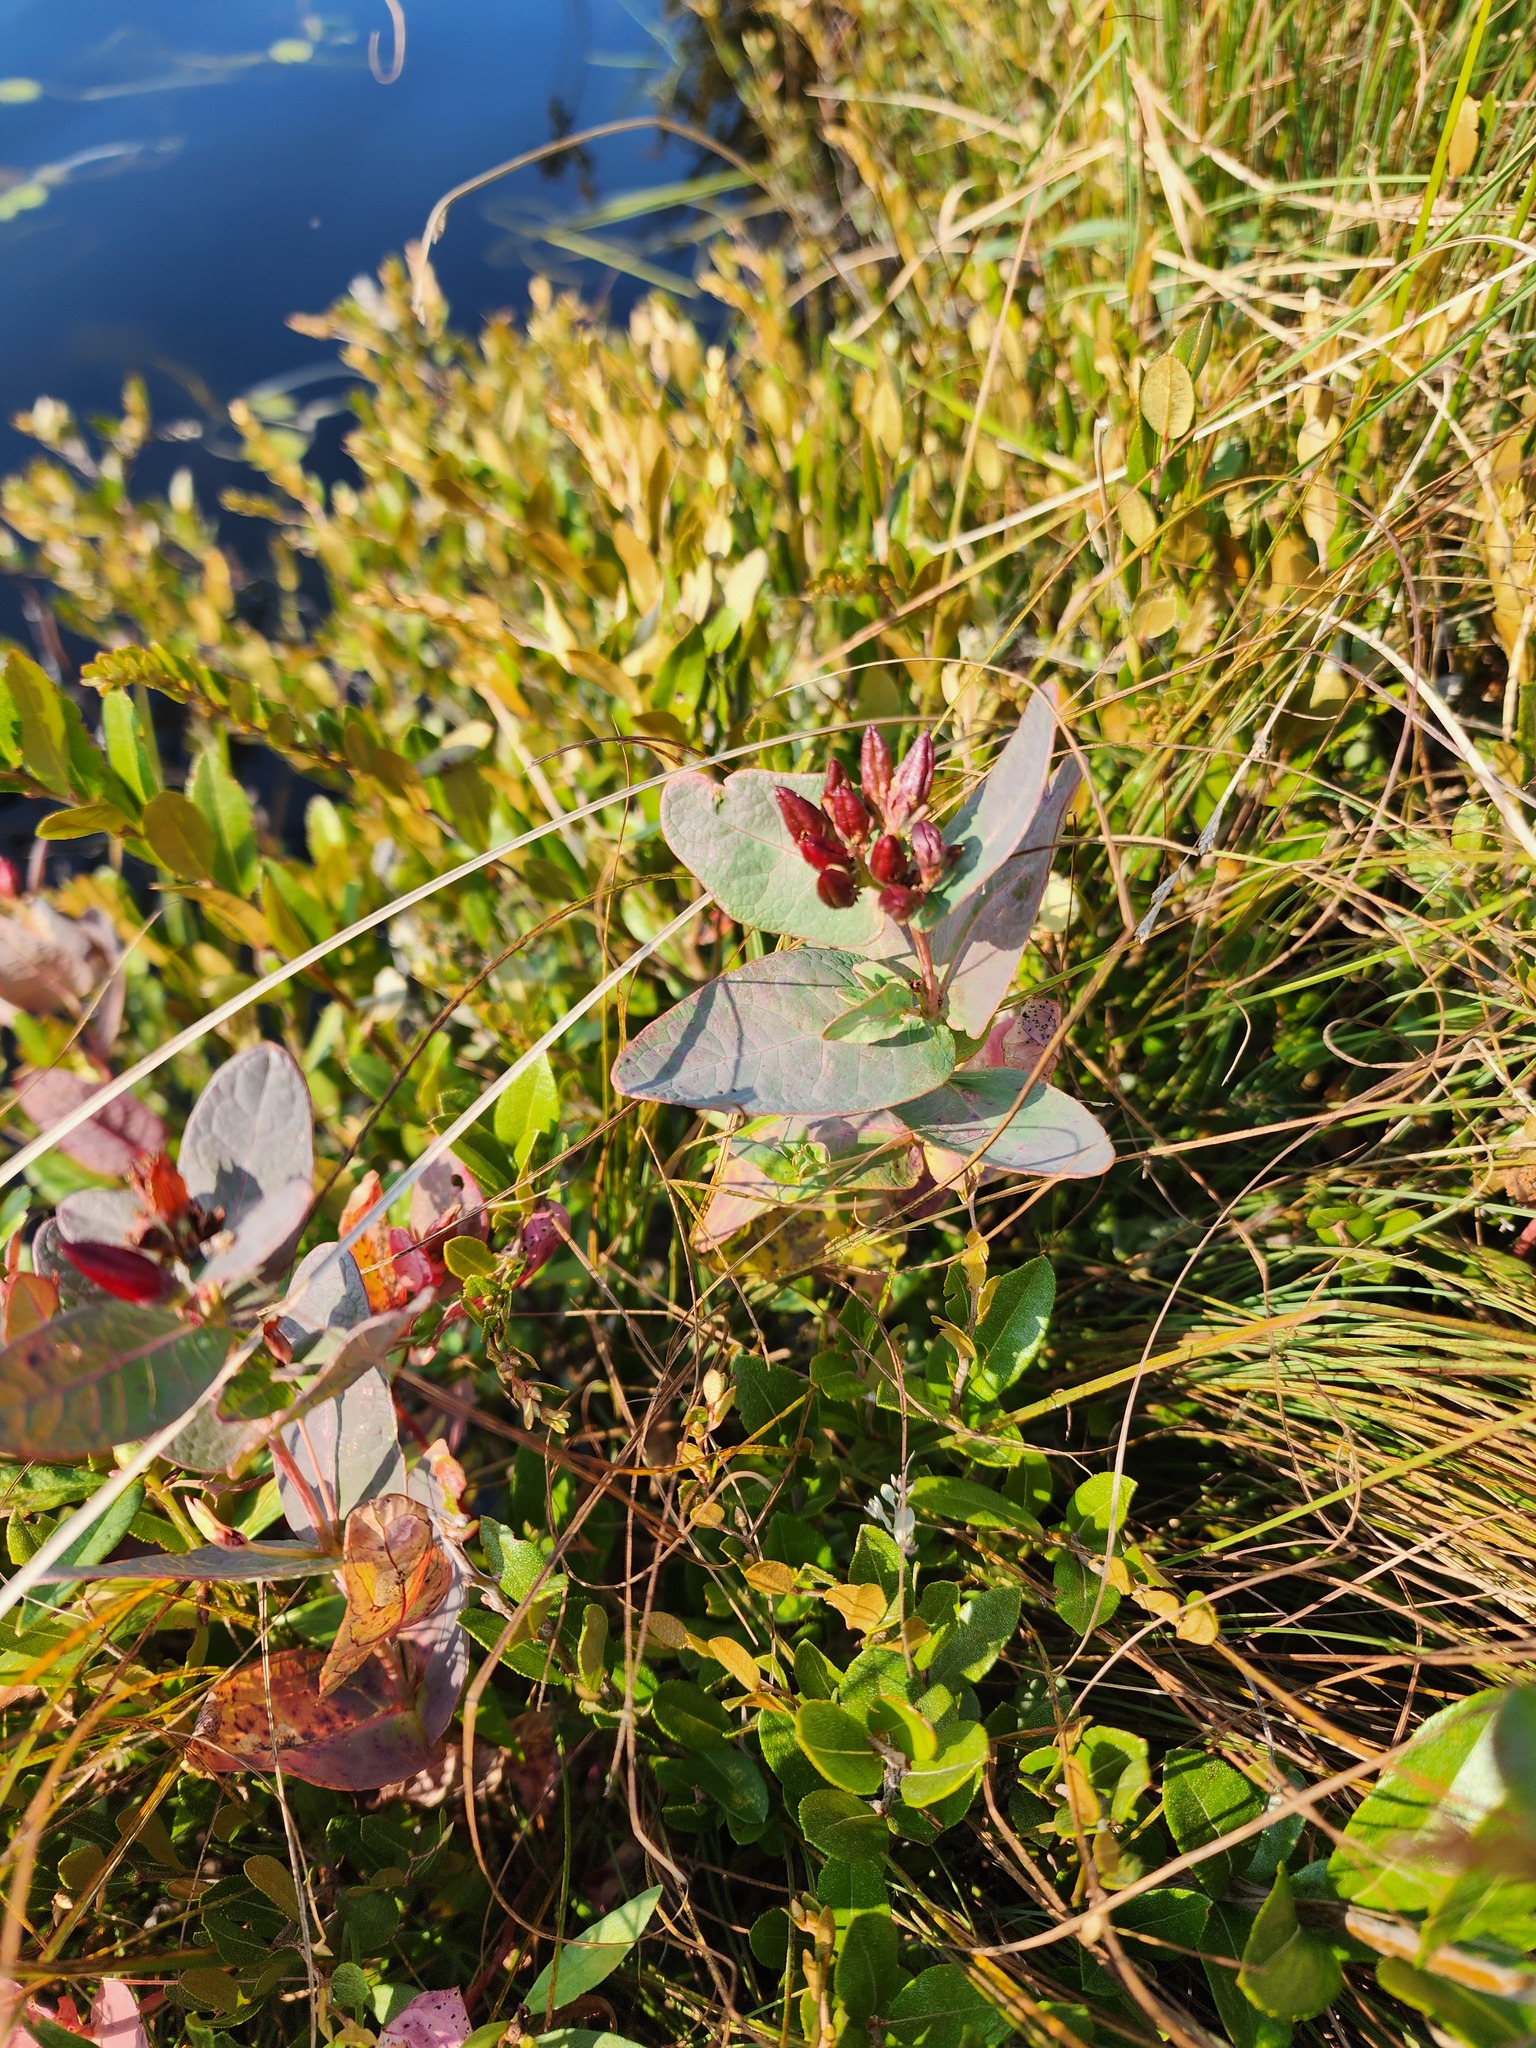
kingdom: Plantae
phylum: Tracheophyta
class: Magnoliopsida
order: Malpighiales
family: Hypericaceae
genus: Triadenum
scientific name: Triadenum fraseri
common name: Fraser's marsh st. johnswort
